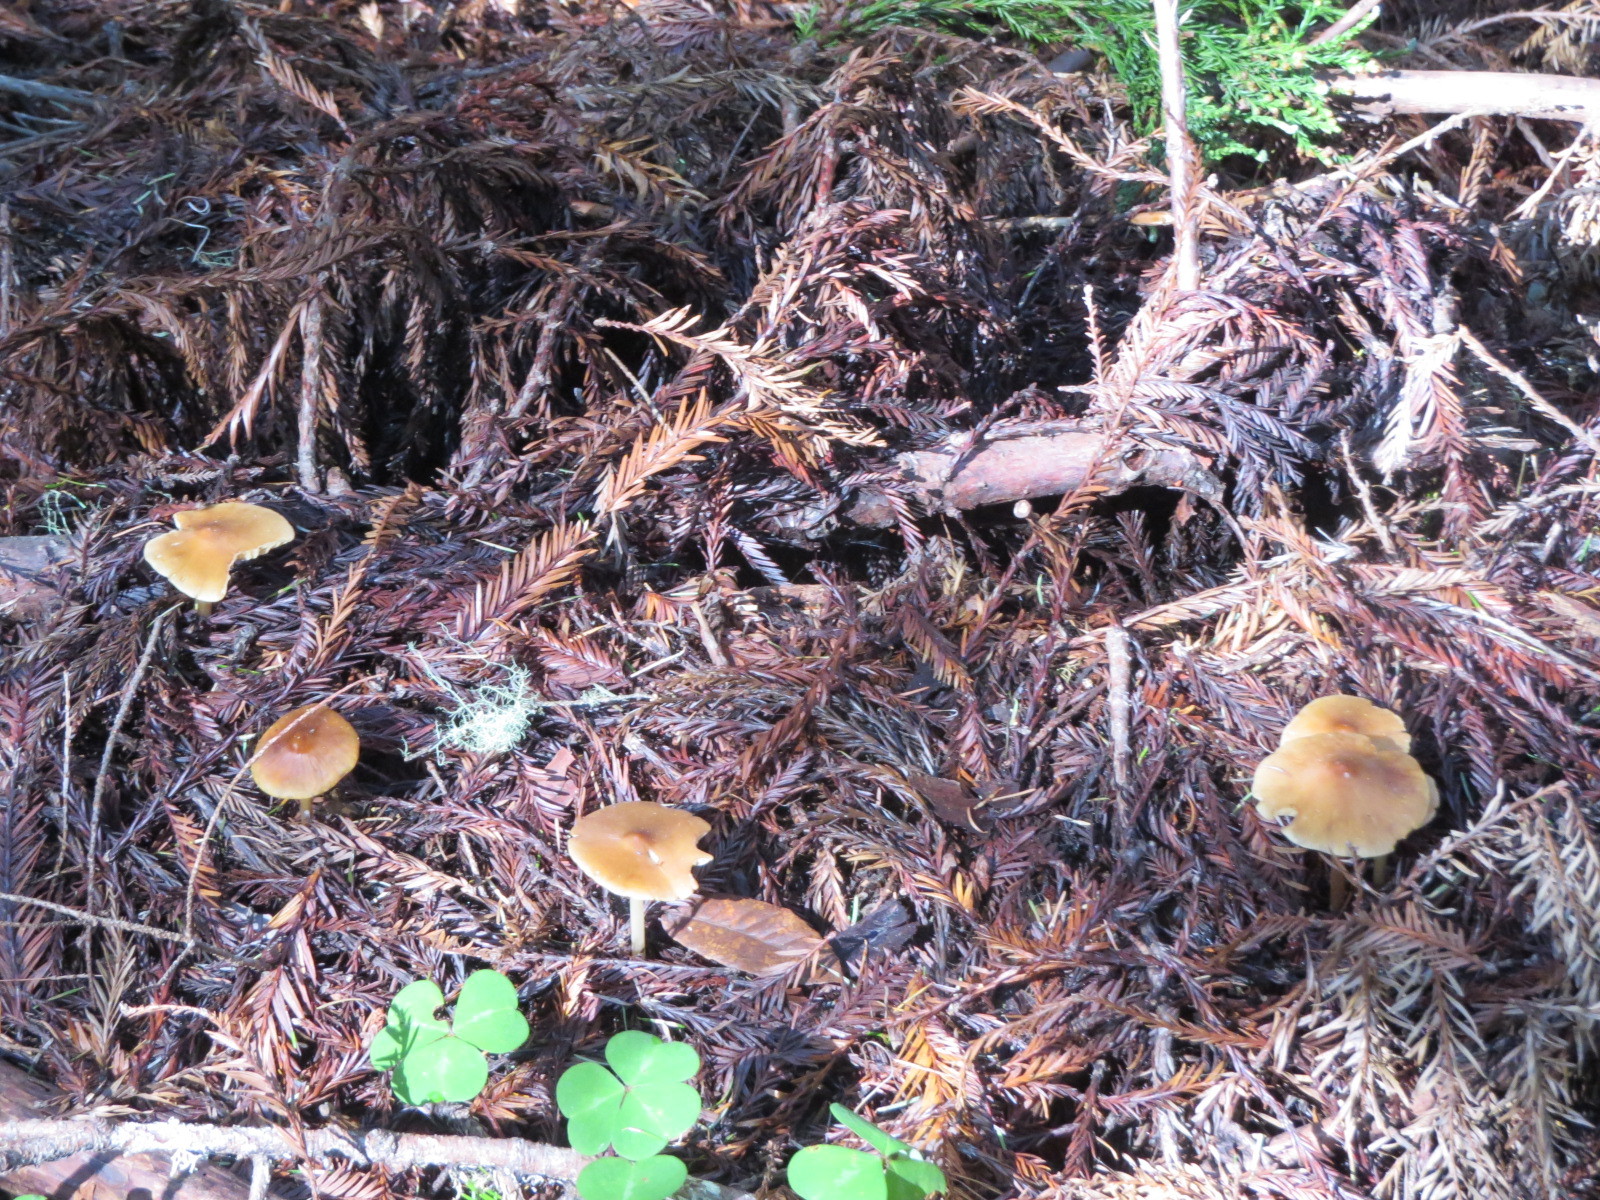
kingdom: Fungi
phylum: Basidiomycota
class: Agaricomycetes
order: Agaricales
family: Tricholomataceae
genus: Caulorhiza
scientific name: Caulorhiza umbonata
